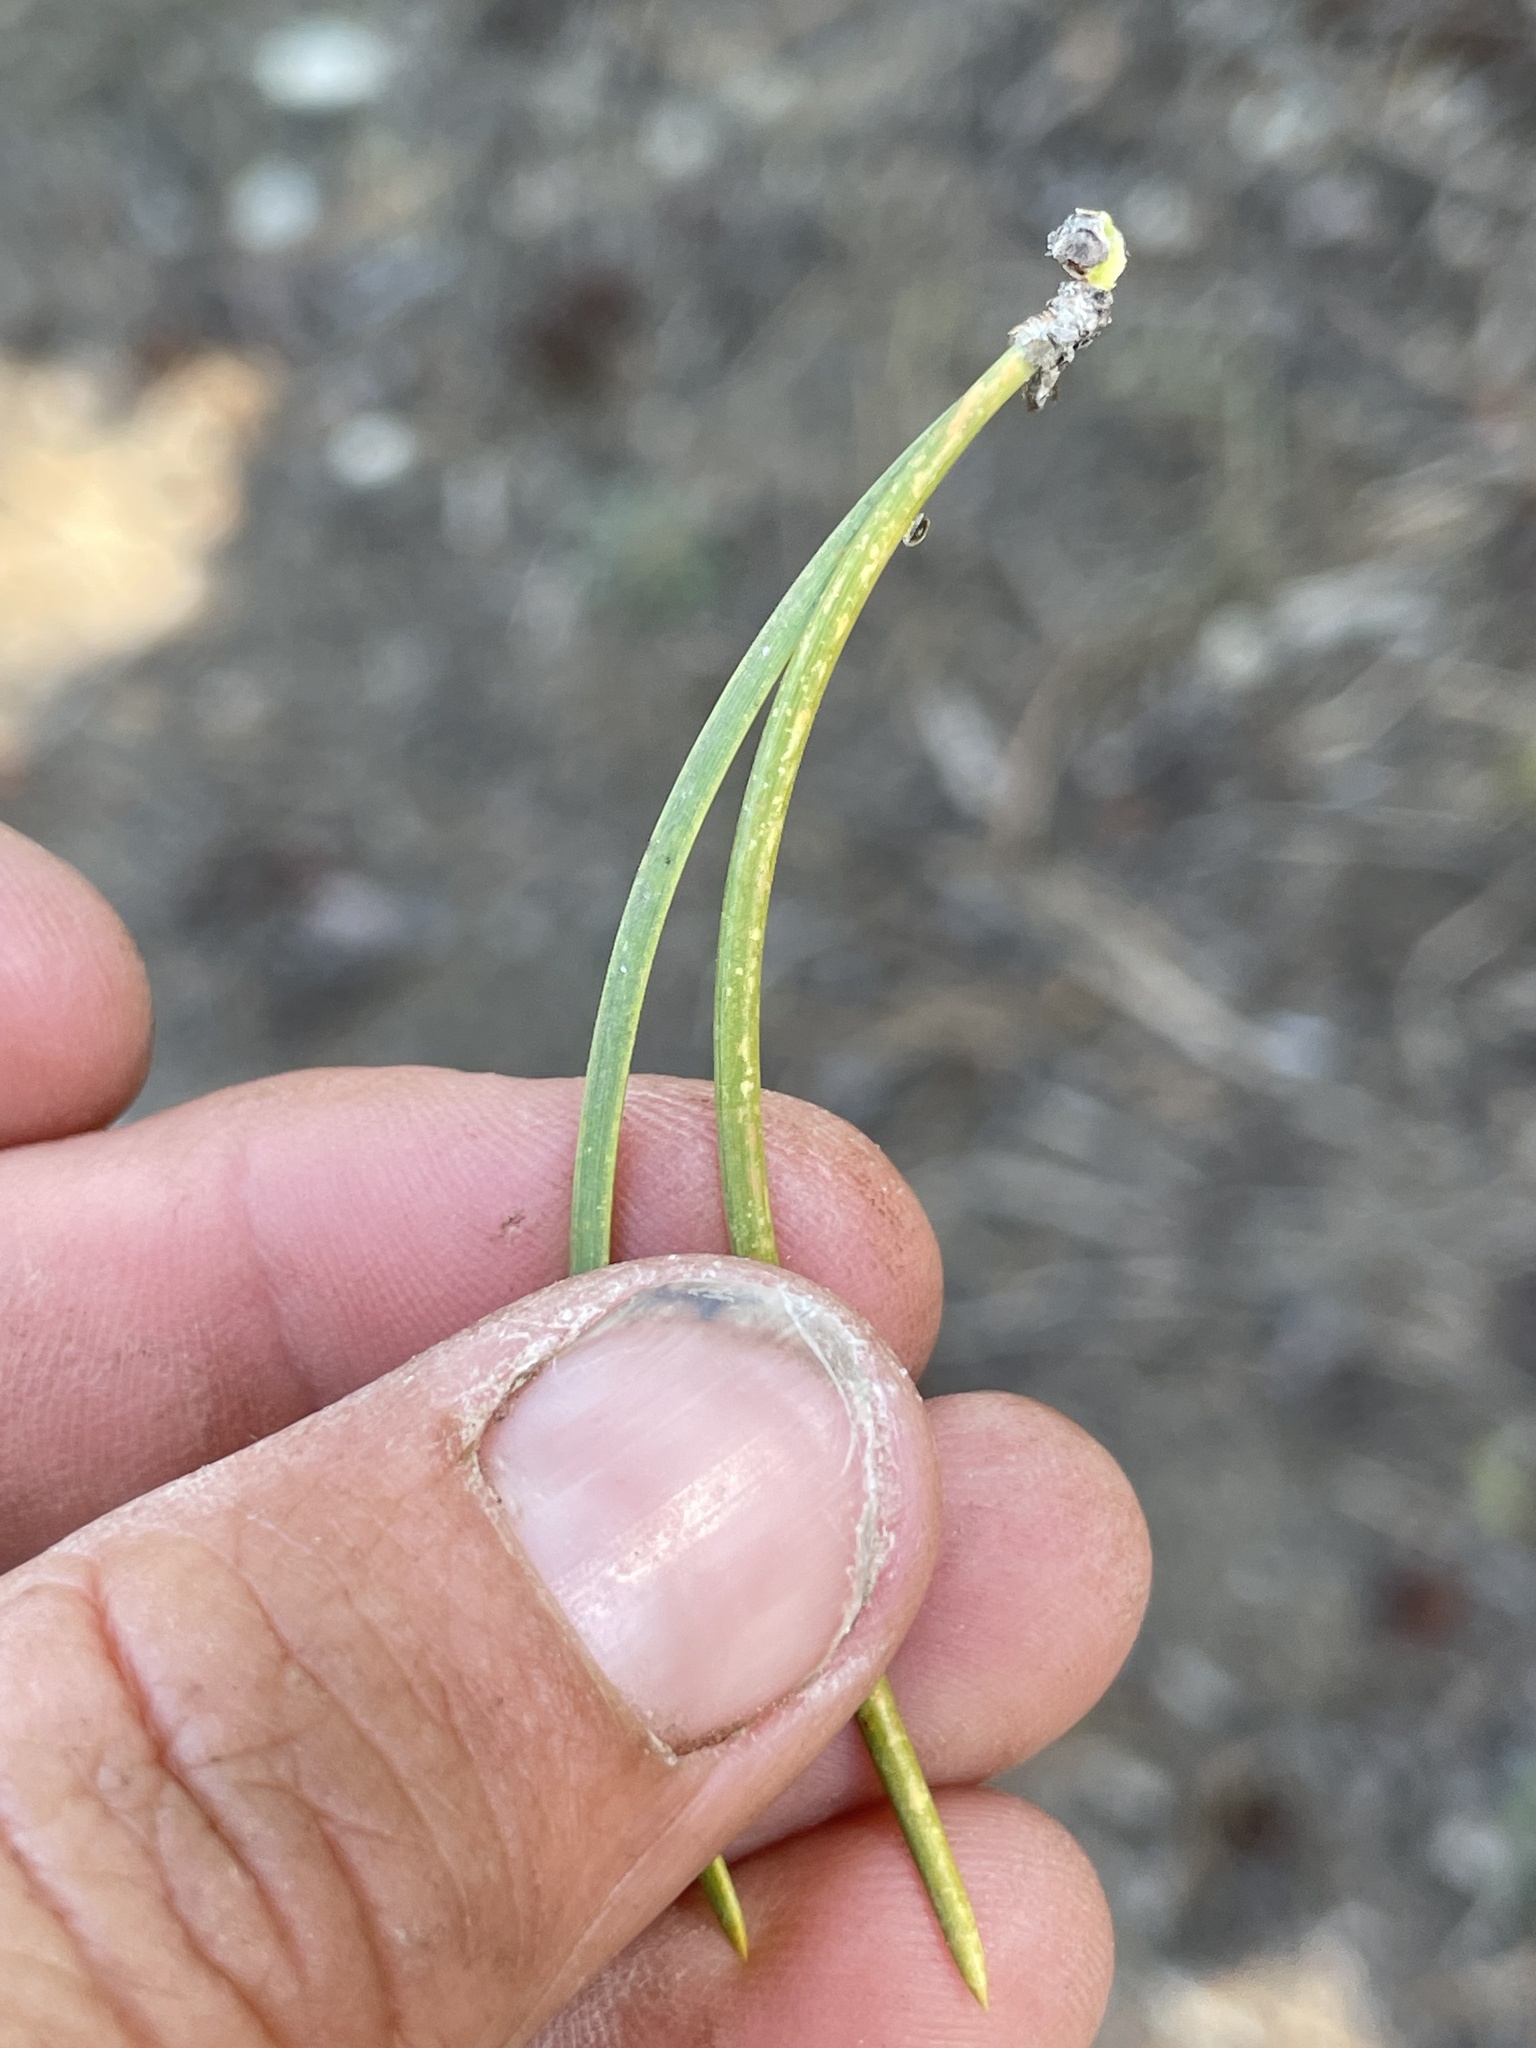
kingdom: Plantae
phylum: Tracheophyta
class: Pinopsida
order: Pinales
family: Pinaceae
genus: Pinus
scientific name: Pinus contorta
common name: Lodgepole pine
